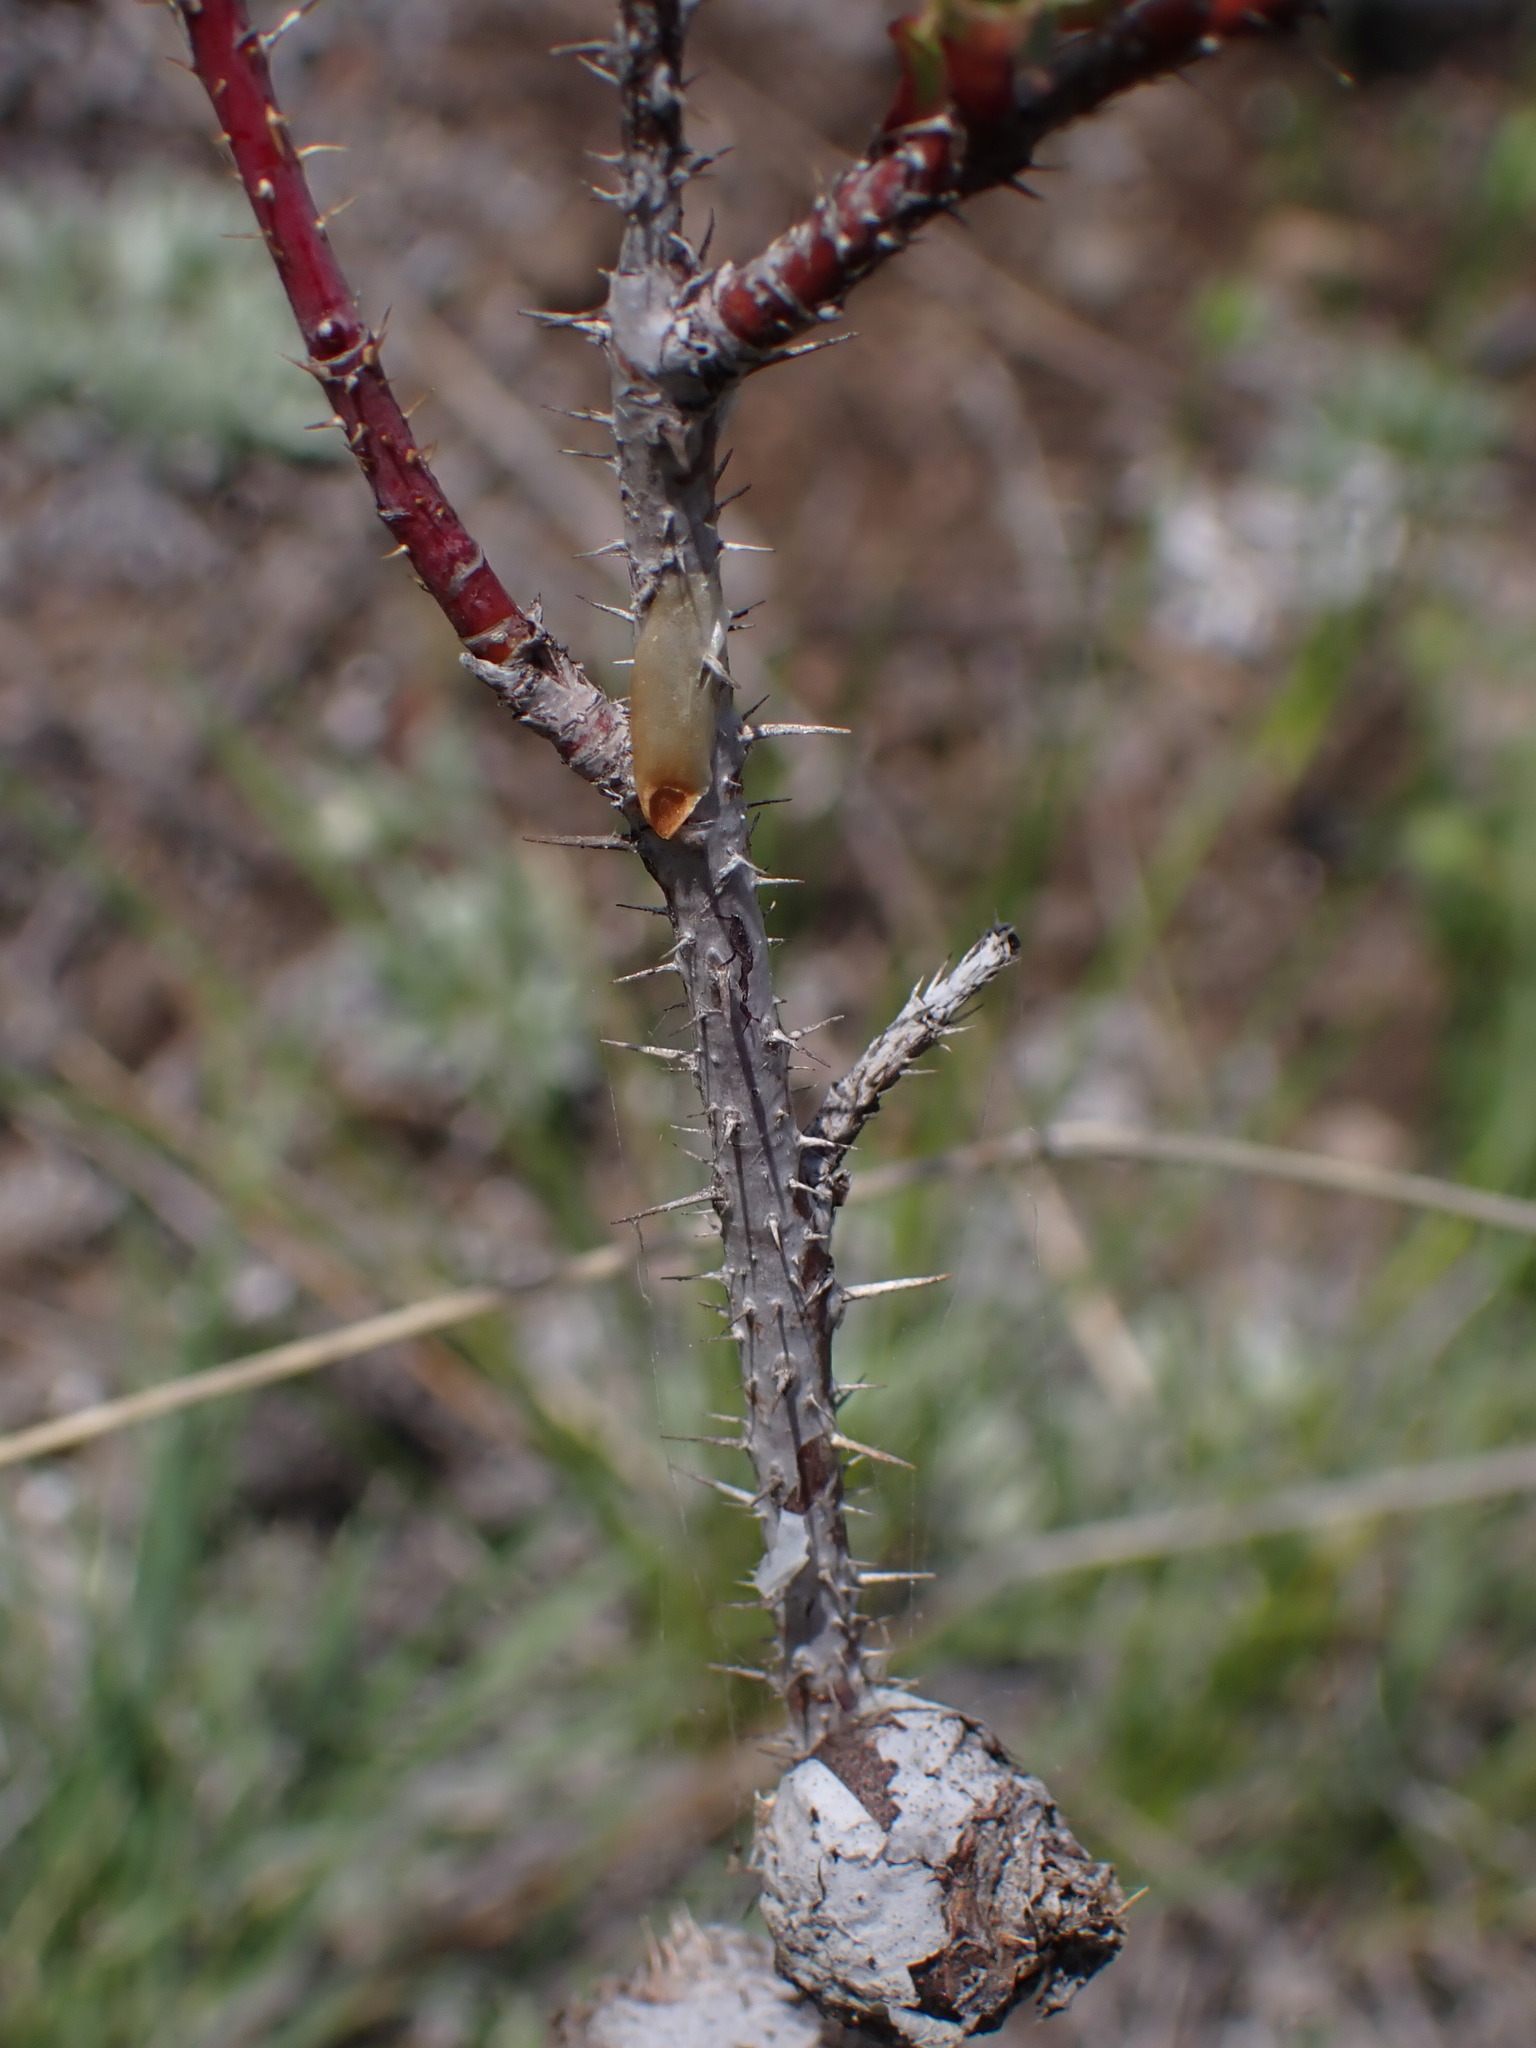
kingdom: Animalia
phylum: Arthropoda
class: Insecta
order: Hymenoptera
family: Cynipidae
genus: Diplolepis
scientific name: Diplolepis spinosa
